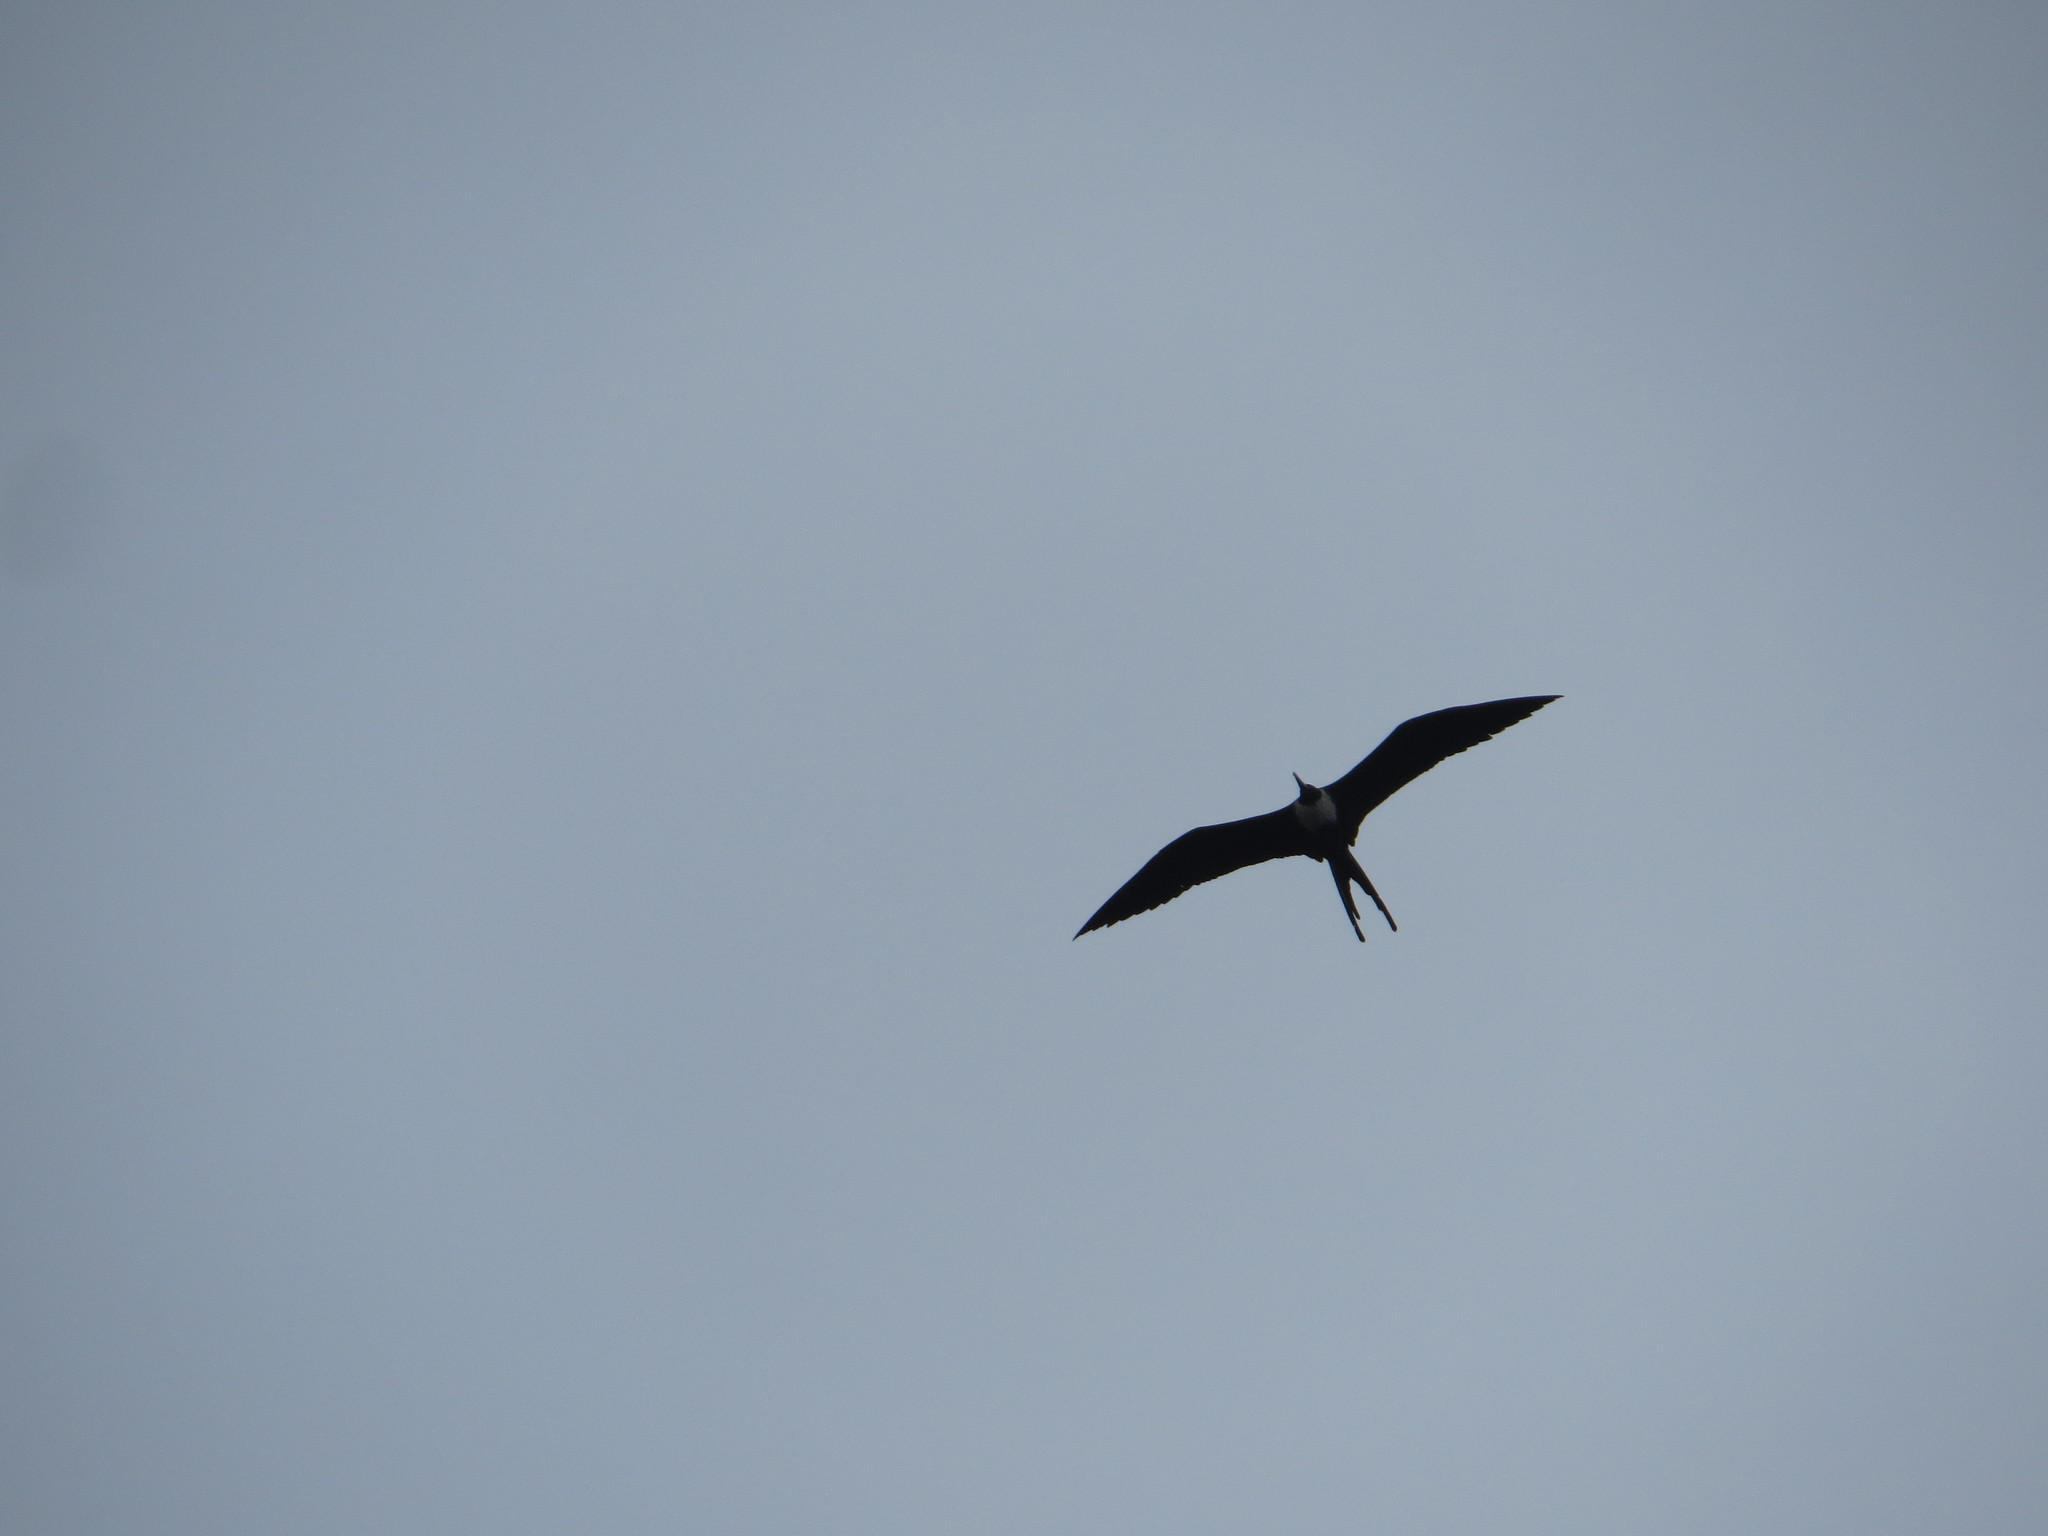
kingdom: Animalia
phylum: Chordata
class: Aves
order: Suliformes
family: Fregatidae
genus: Fregata
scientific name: Fregata magnificens
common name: Magnificent frigatebird
